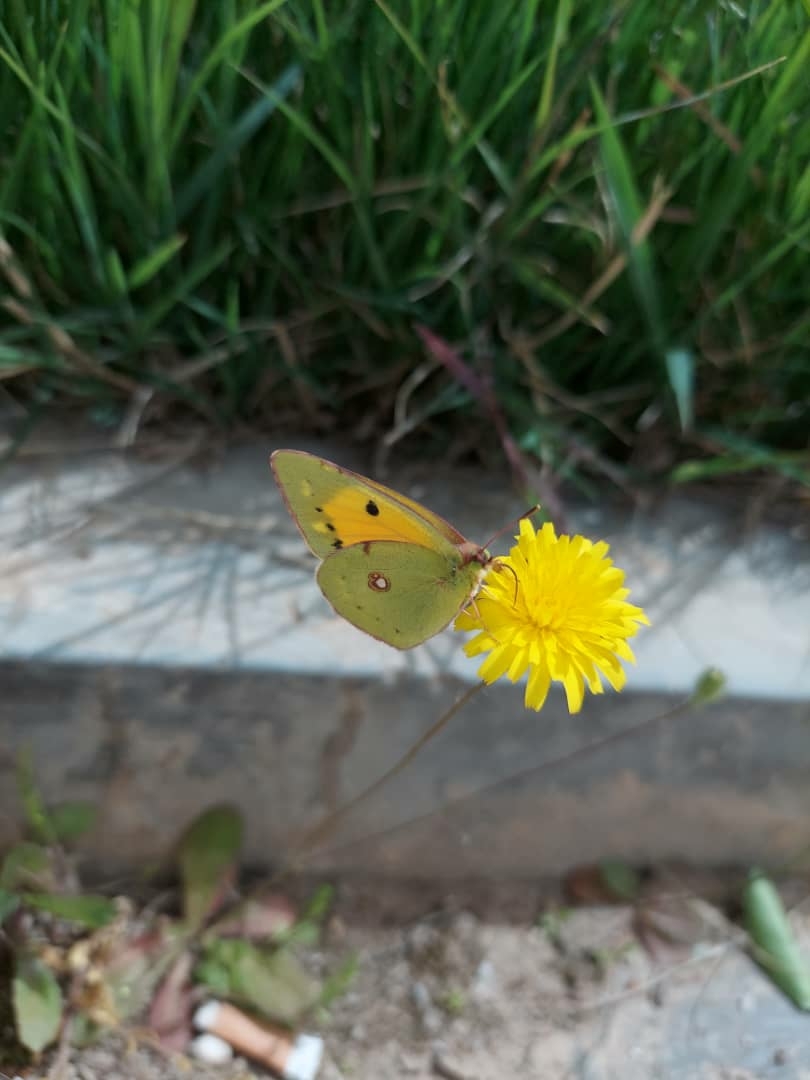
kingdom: Animalia
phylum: Arthropoda
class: Insecta
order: Lepidoptera
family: Pieridae
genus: Colias
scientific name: Colias croceus
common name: Clouded yellow
